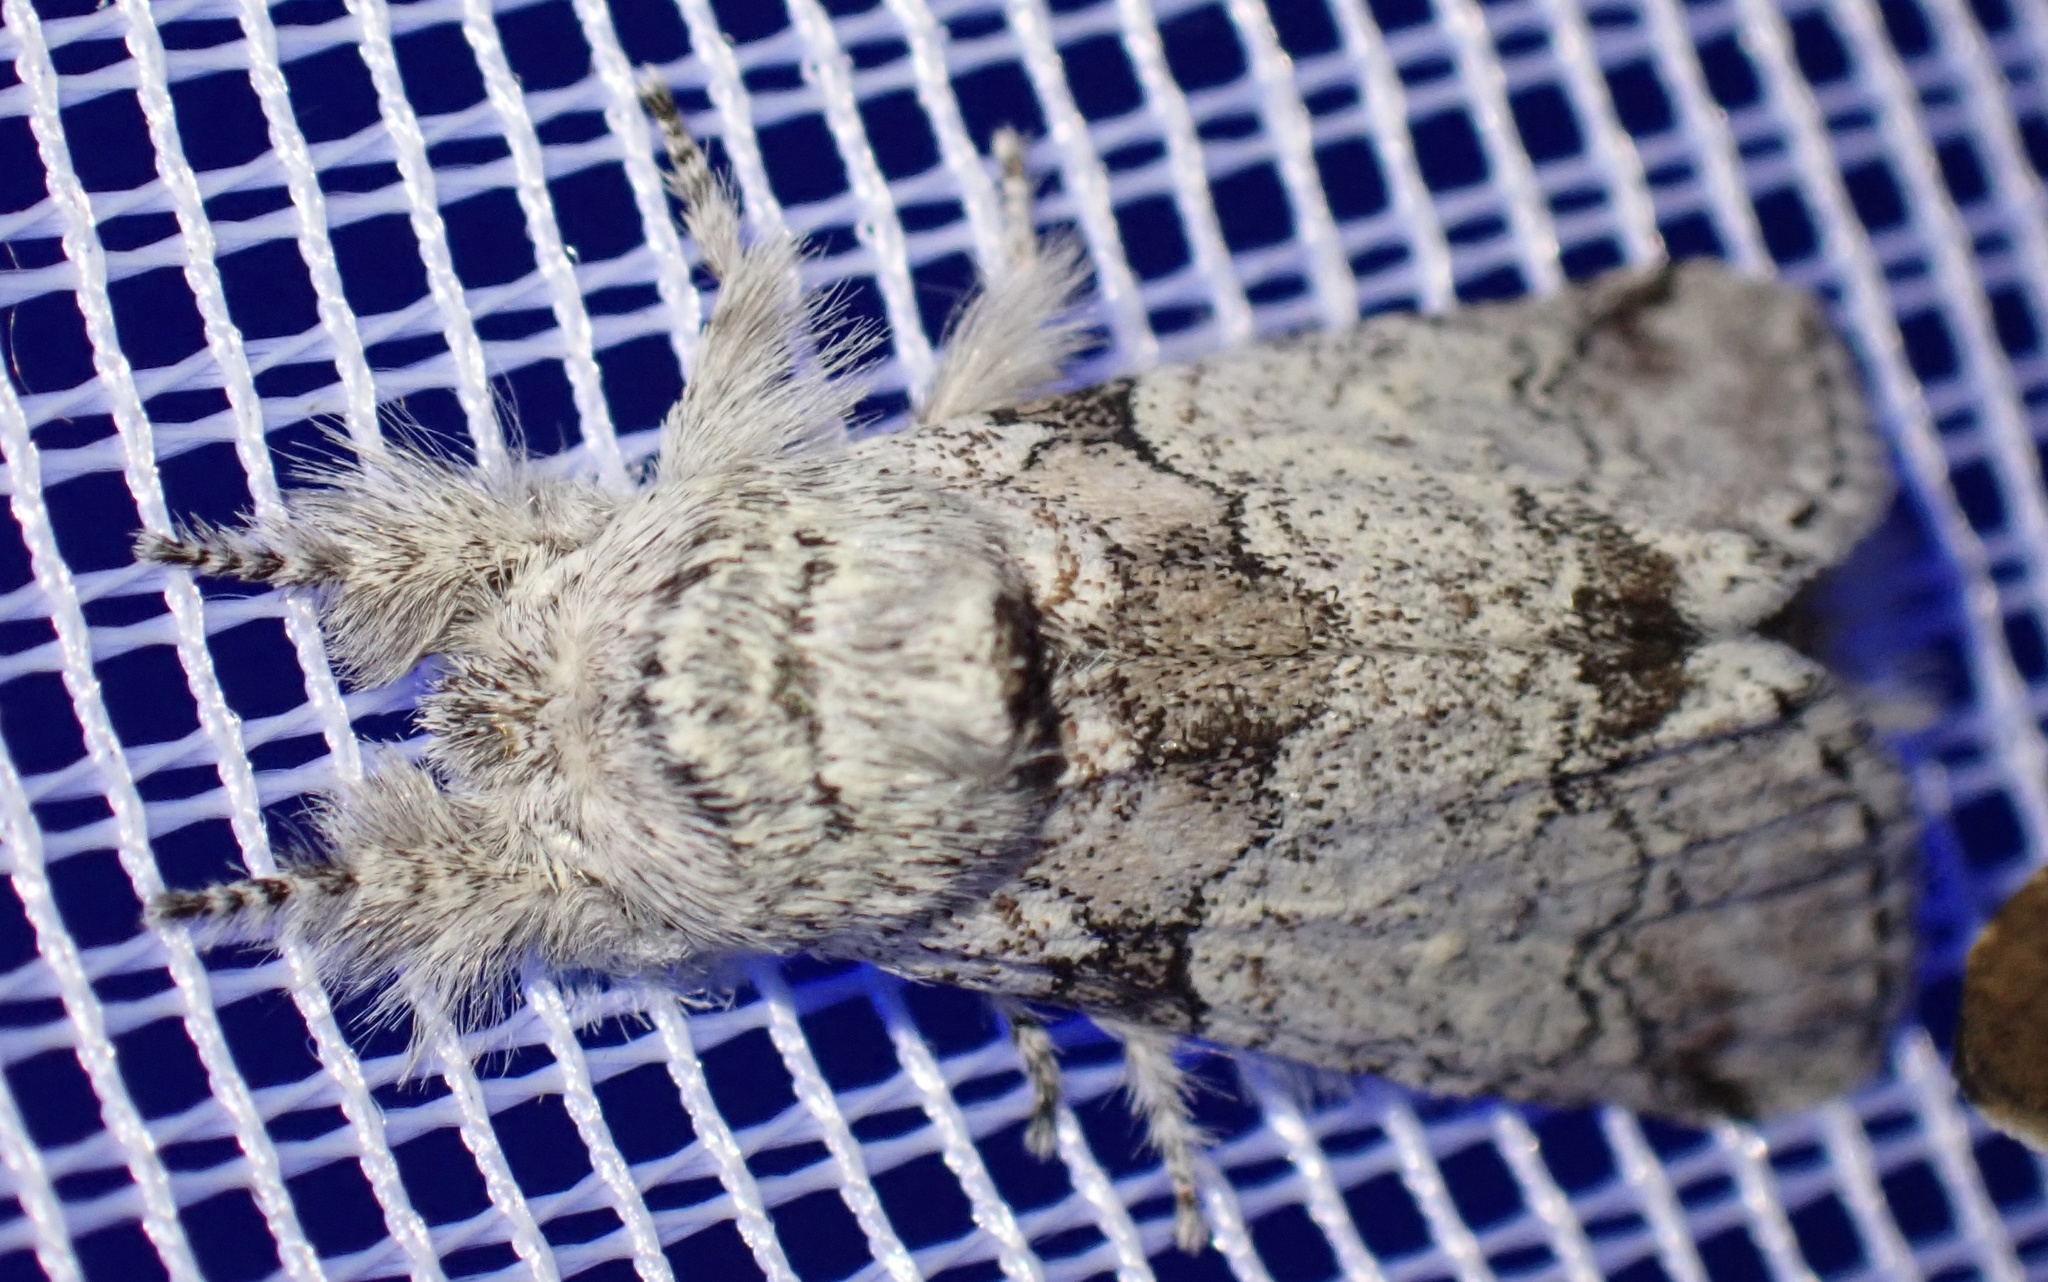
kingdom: Animalia
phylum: Arthropoda
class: Insecta
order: Lepidoptera
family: Notodontidae
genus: Pararethona
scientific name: Pararethona hierax
